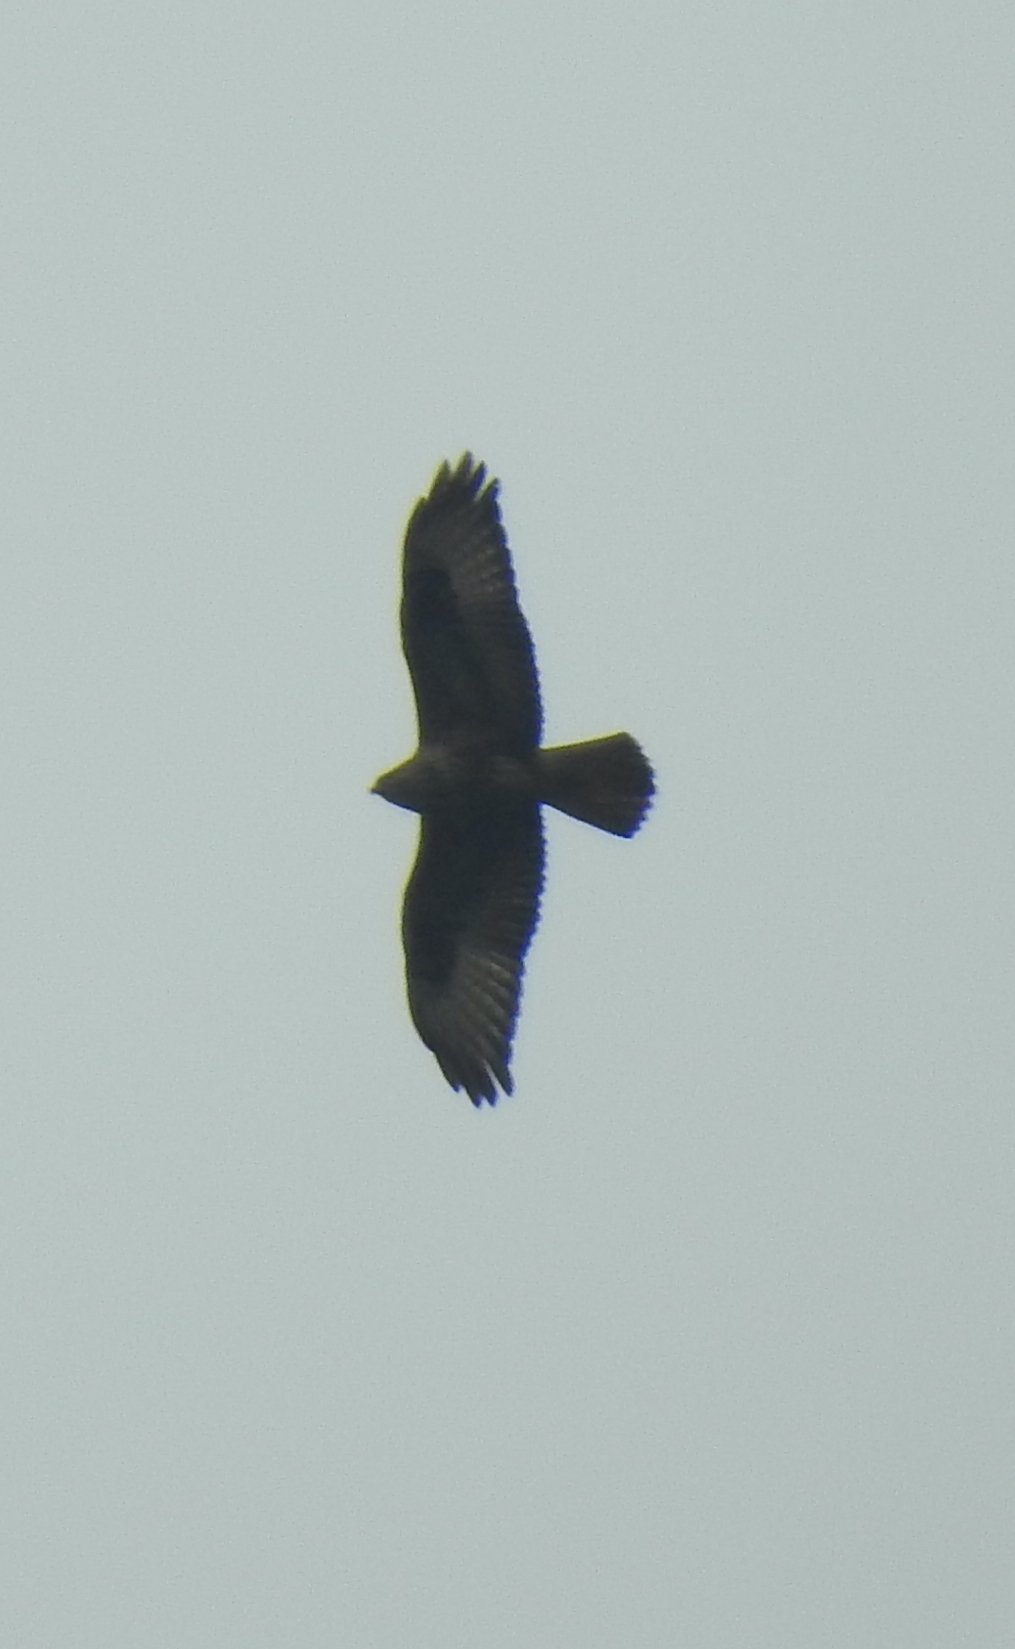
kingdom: Animalia
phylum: Chordata
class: Aves
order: Accipitriformes
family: Accipitridae
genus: Buteo
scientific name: Buteo buteo
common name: Common buzzard
